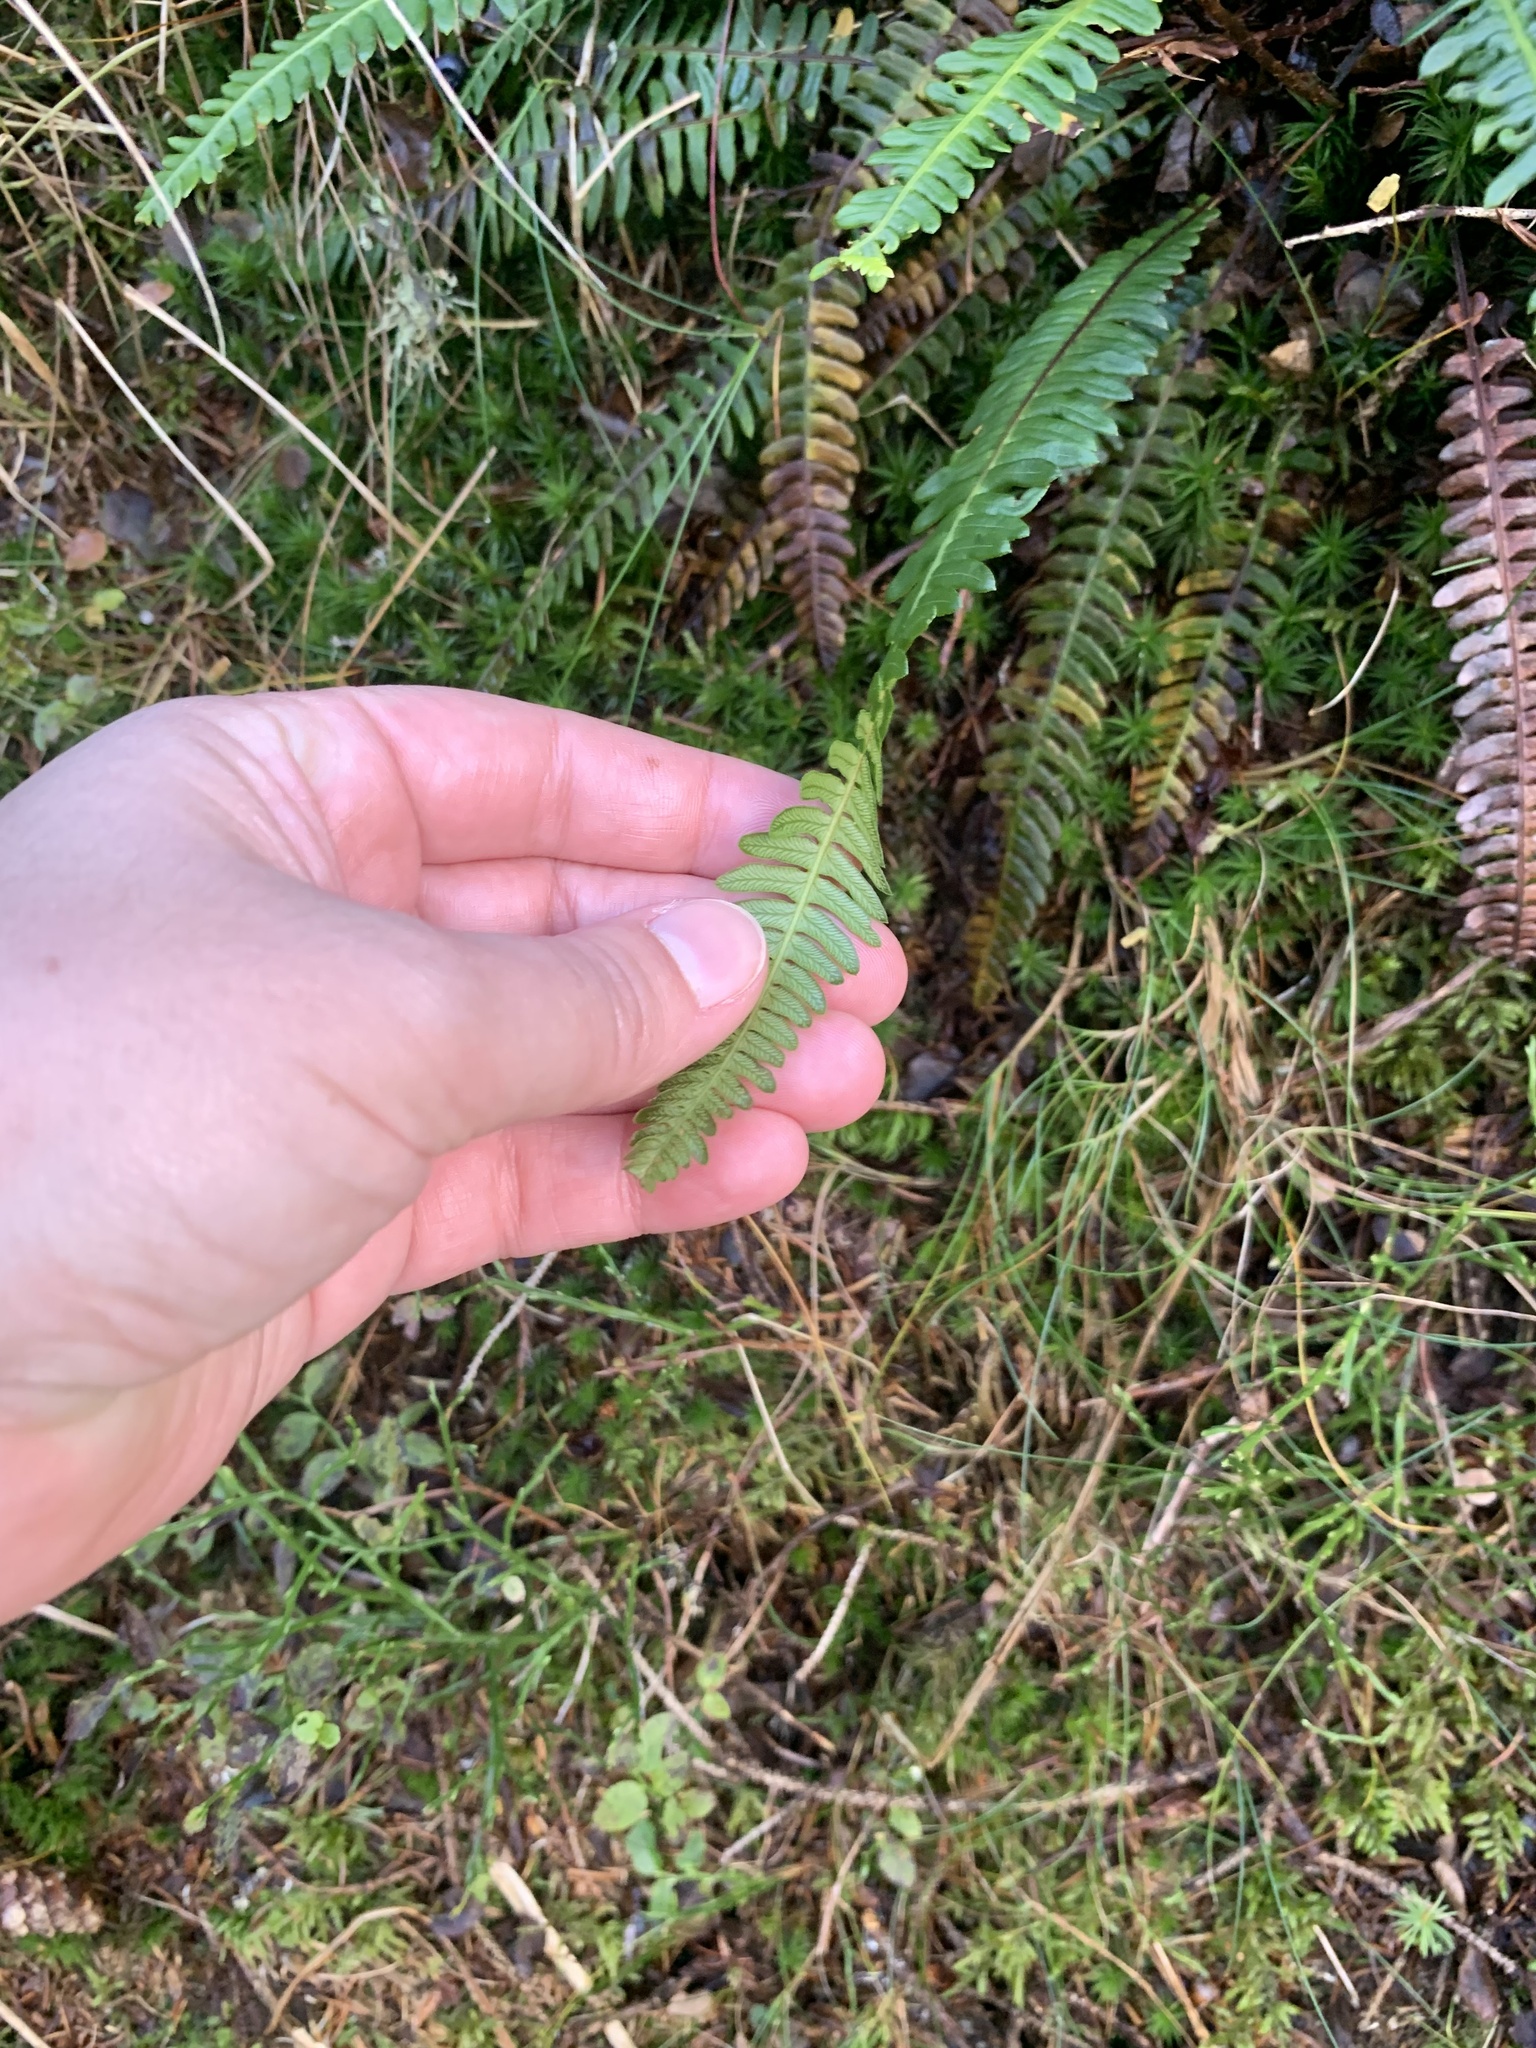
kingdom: Plantae
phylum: Tracheophyta
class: Polypodiopsida
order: Polypodiales
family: Blechnaceae
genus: Struthiopteris
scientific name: Struthiopteris spicant
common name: Deer fern
